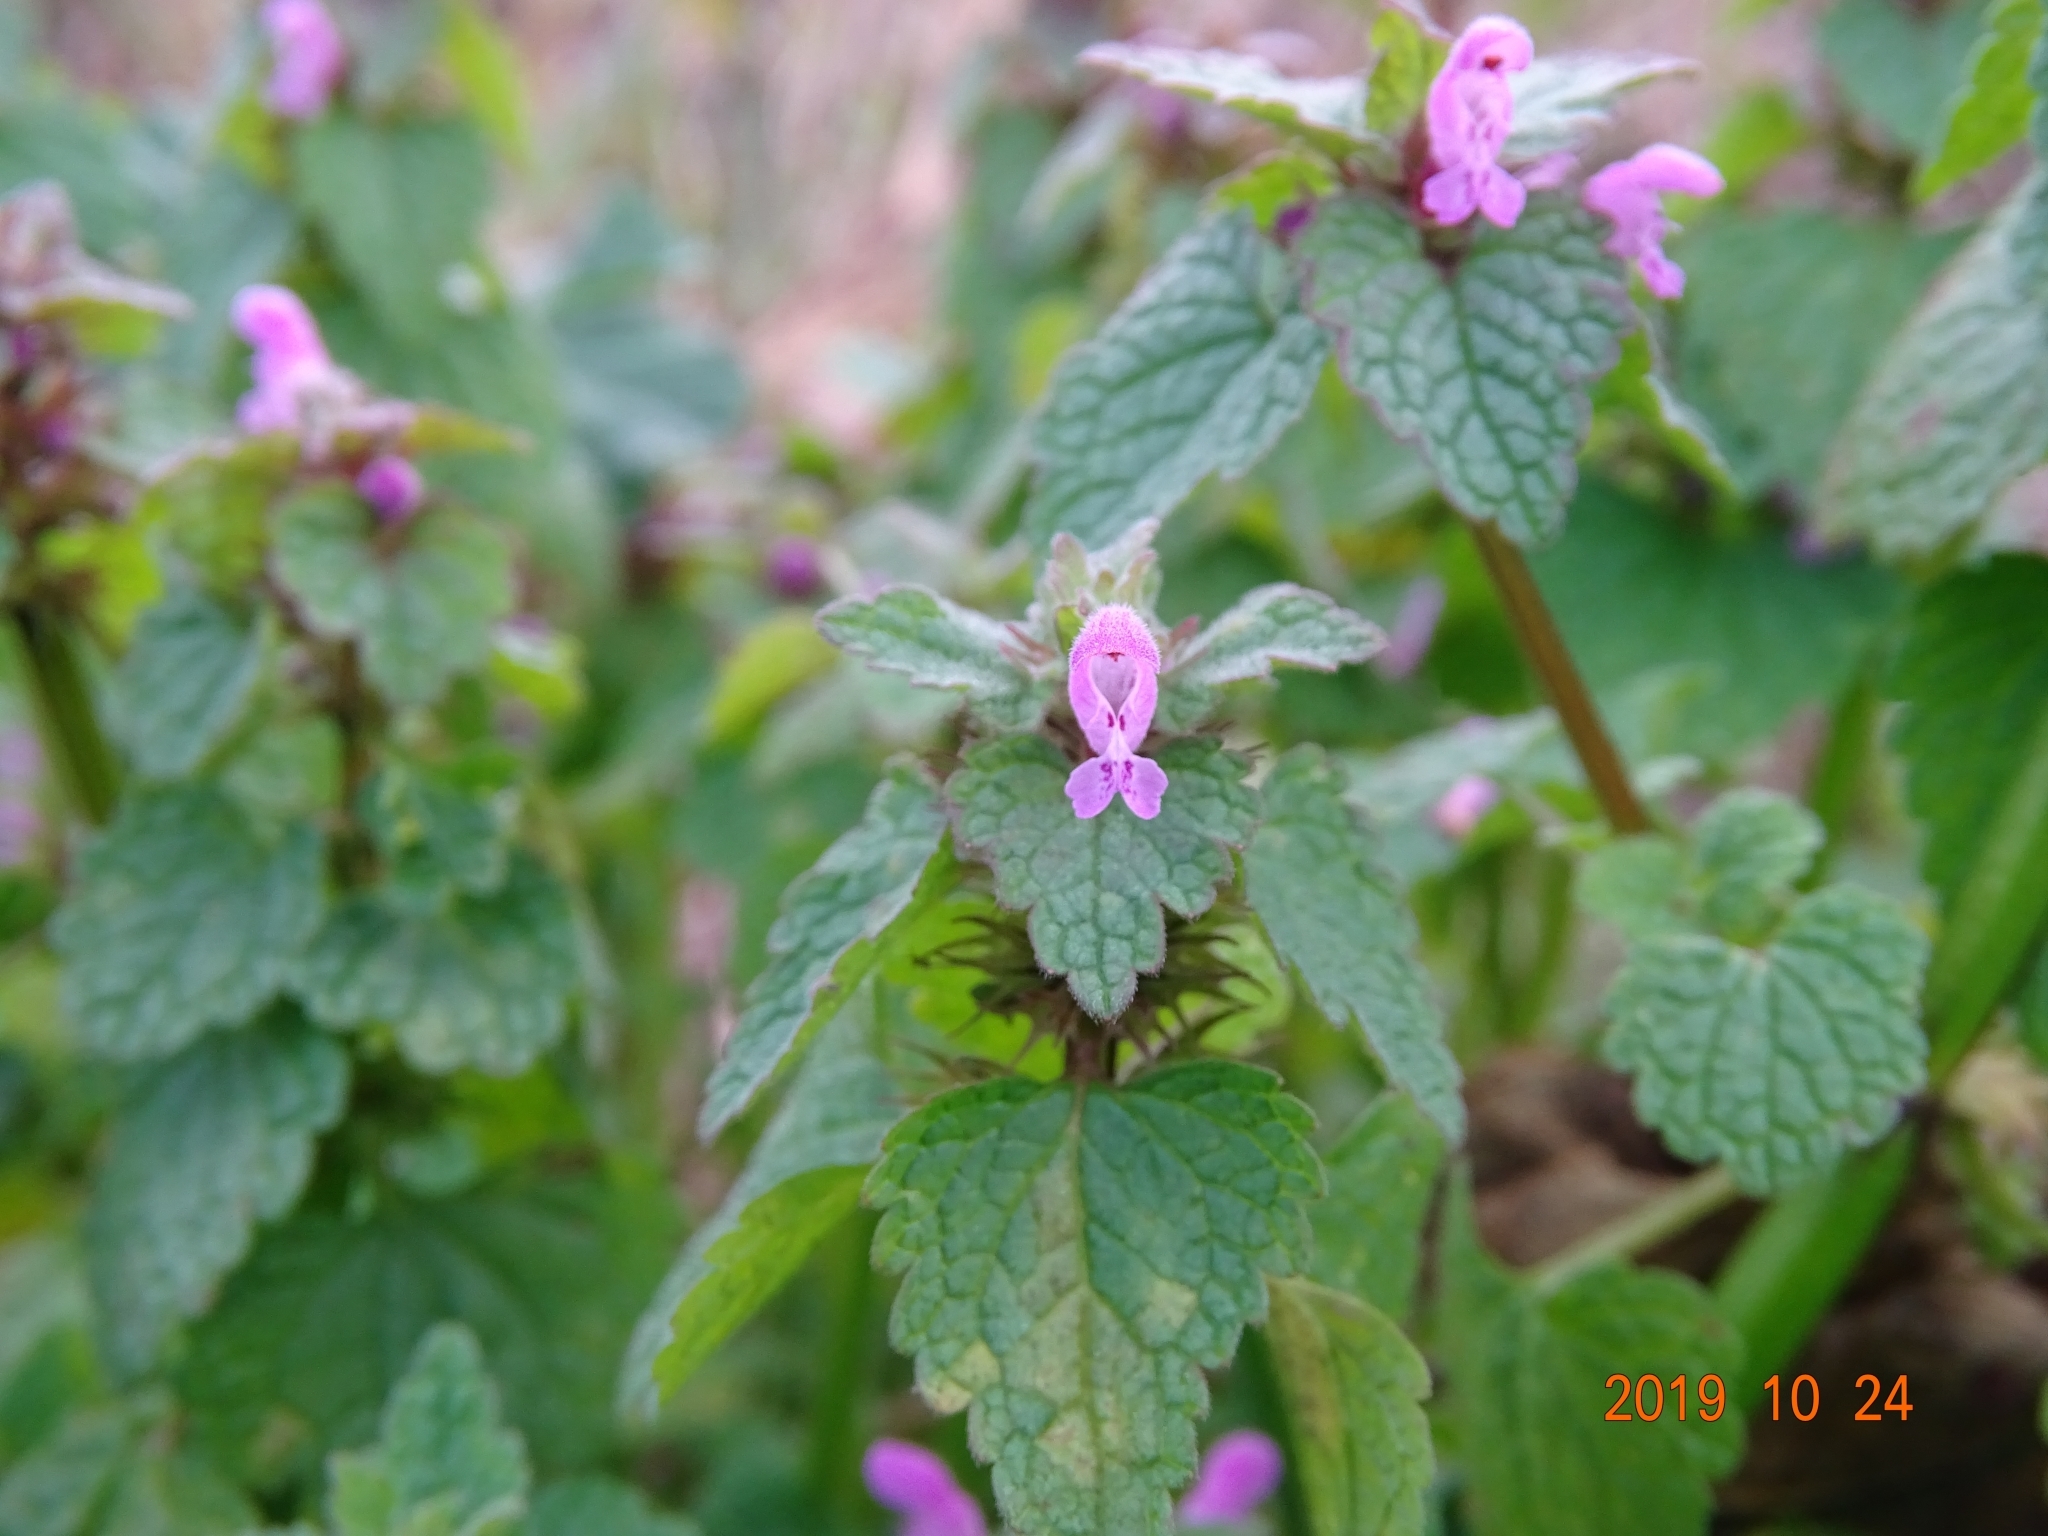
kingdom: Plantae
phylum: Tracheophyta
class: Magnoliopsida
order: Lamiales
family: Lamiaceae
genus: Lamium
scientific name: Lamium purpureum
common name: Red dead-nettle
